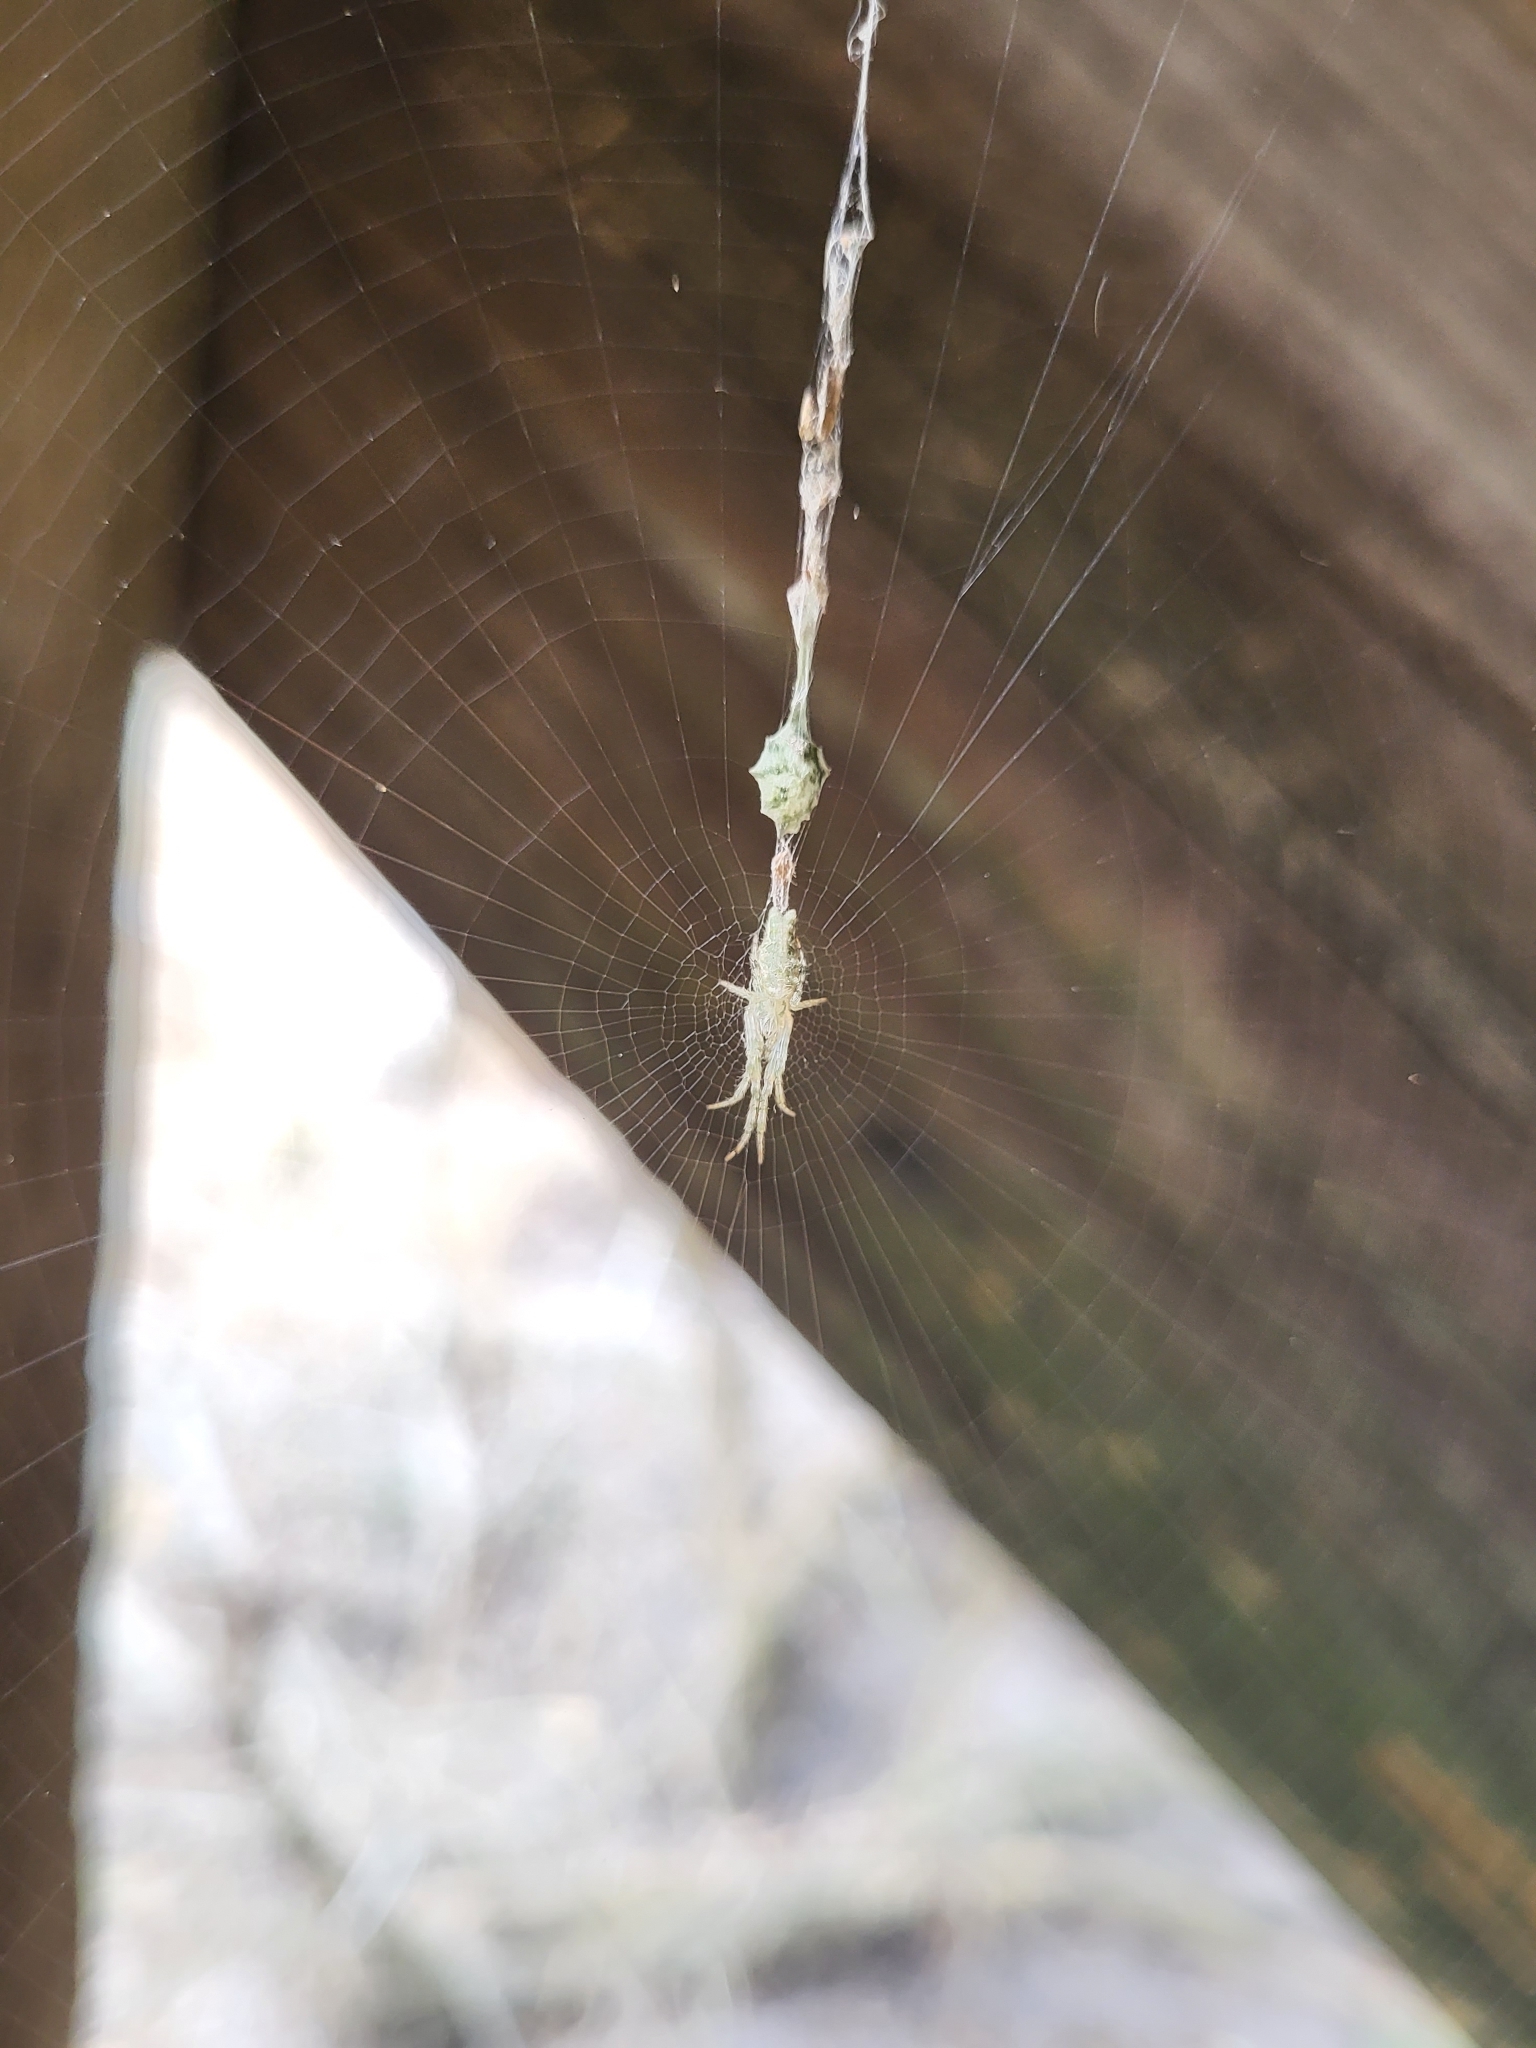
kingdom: Animalia
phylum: Arthropoda
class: Arachnida
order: Araneae
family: Araneidae
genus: Allocyclosa
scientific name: Allocyclosa bifurca
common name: Orb weavers
